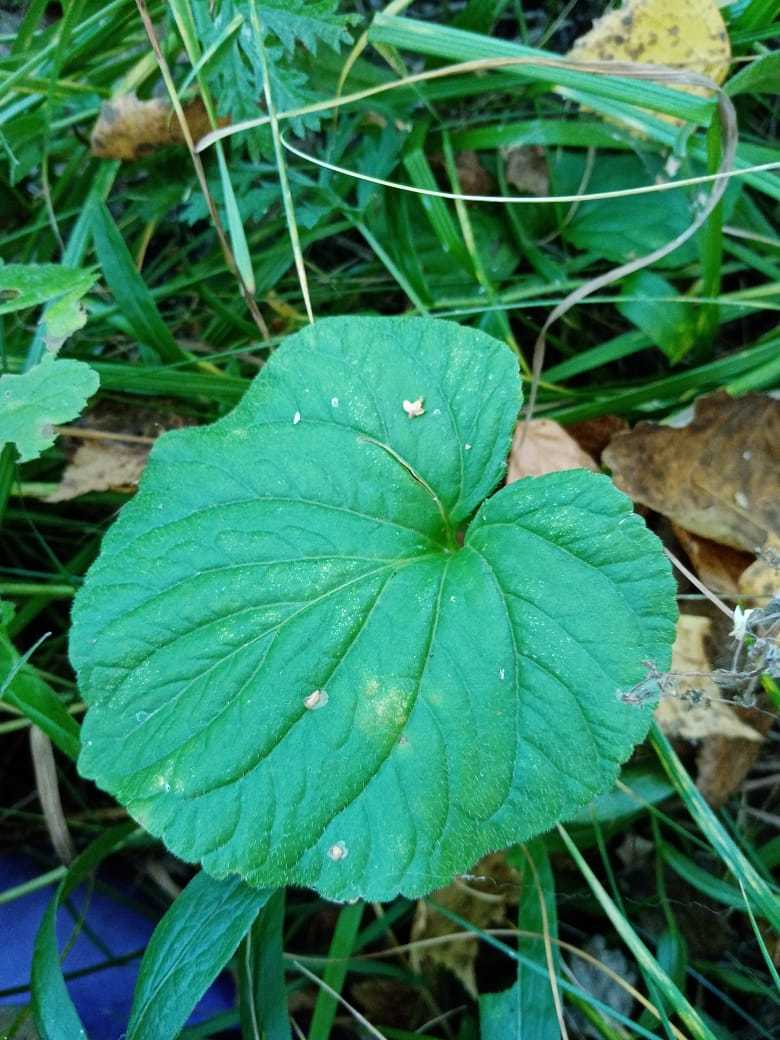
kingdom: Plantae
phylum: Tracheophyta
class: Magnoliopsida
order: Malpighiales
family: Violaceae
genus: Viola
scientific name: Viola mirabilis
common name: Wonder violet
